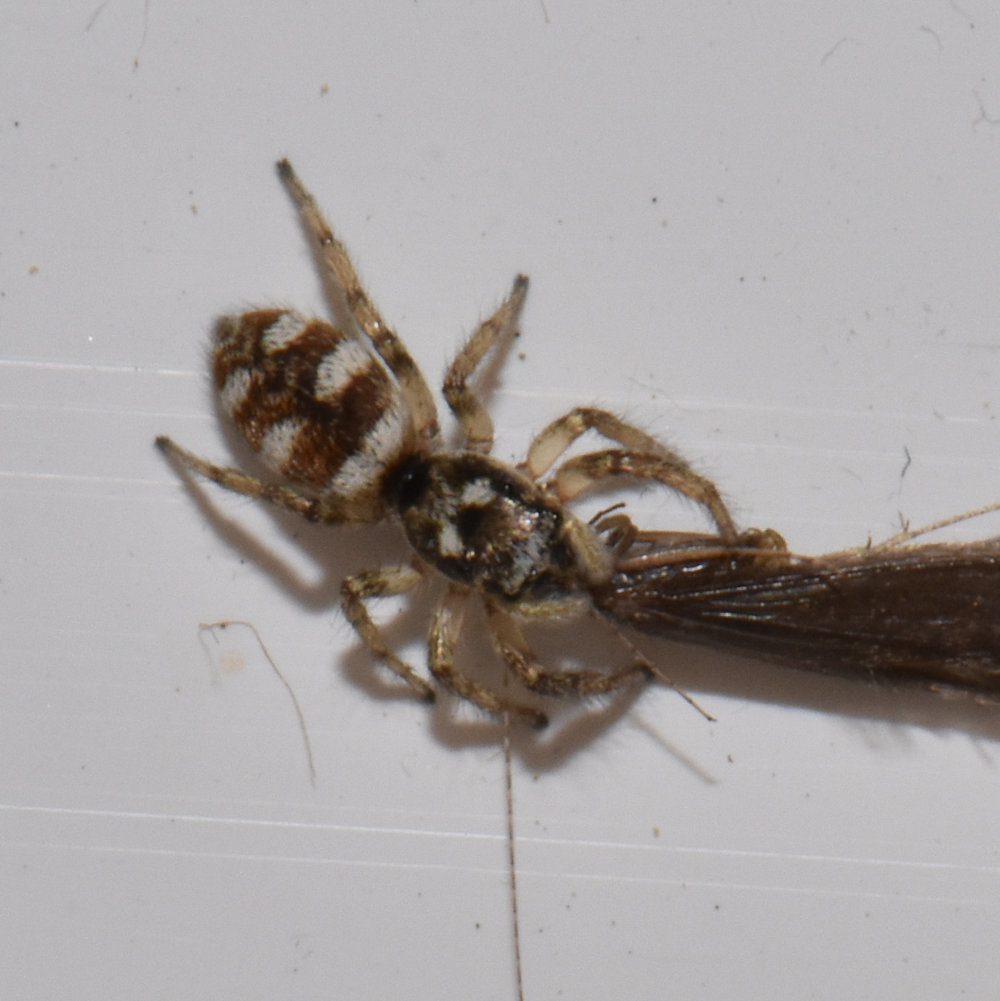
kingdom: Animalia
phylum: Arthropoda
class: Arachnida
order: Araneae
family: Salticidae
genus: Salticus
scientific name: Salticus scenicus
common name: Zebra jumper
